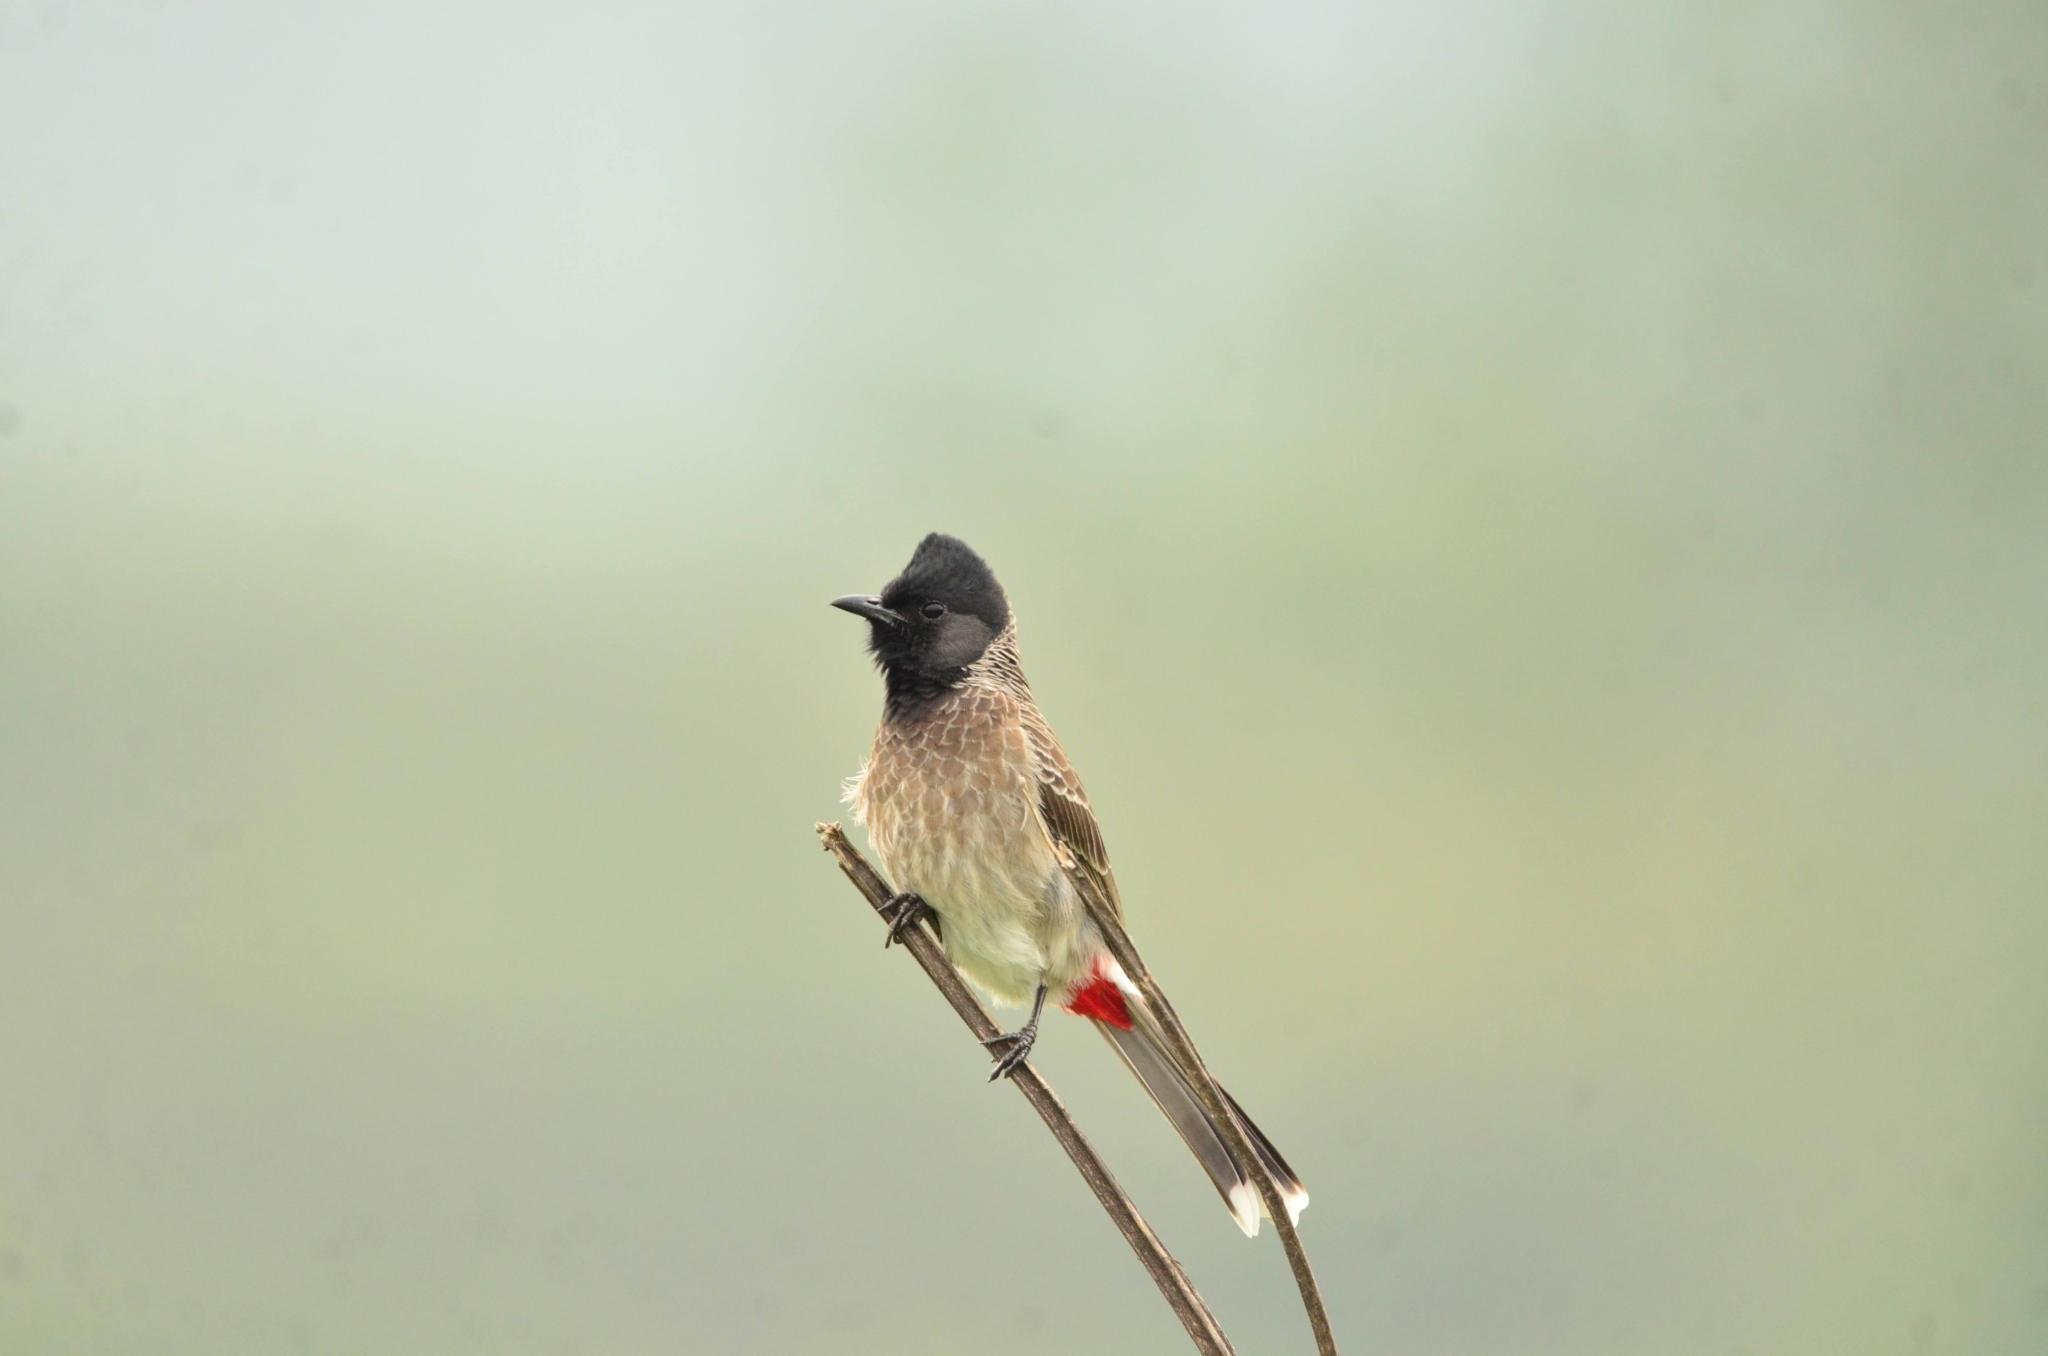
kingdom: Animalia
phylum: Chordata
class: Aves
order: Passeriformes
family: Pycnonotidae
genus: Pycnonotus
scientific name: Pycnonotus cafer
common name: Red-vented bulbul
